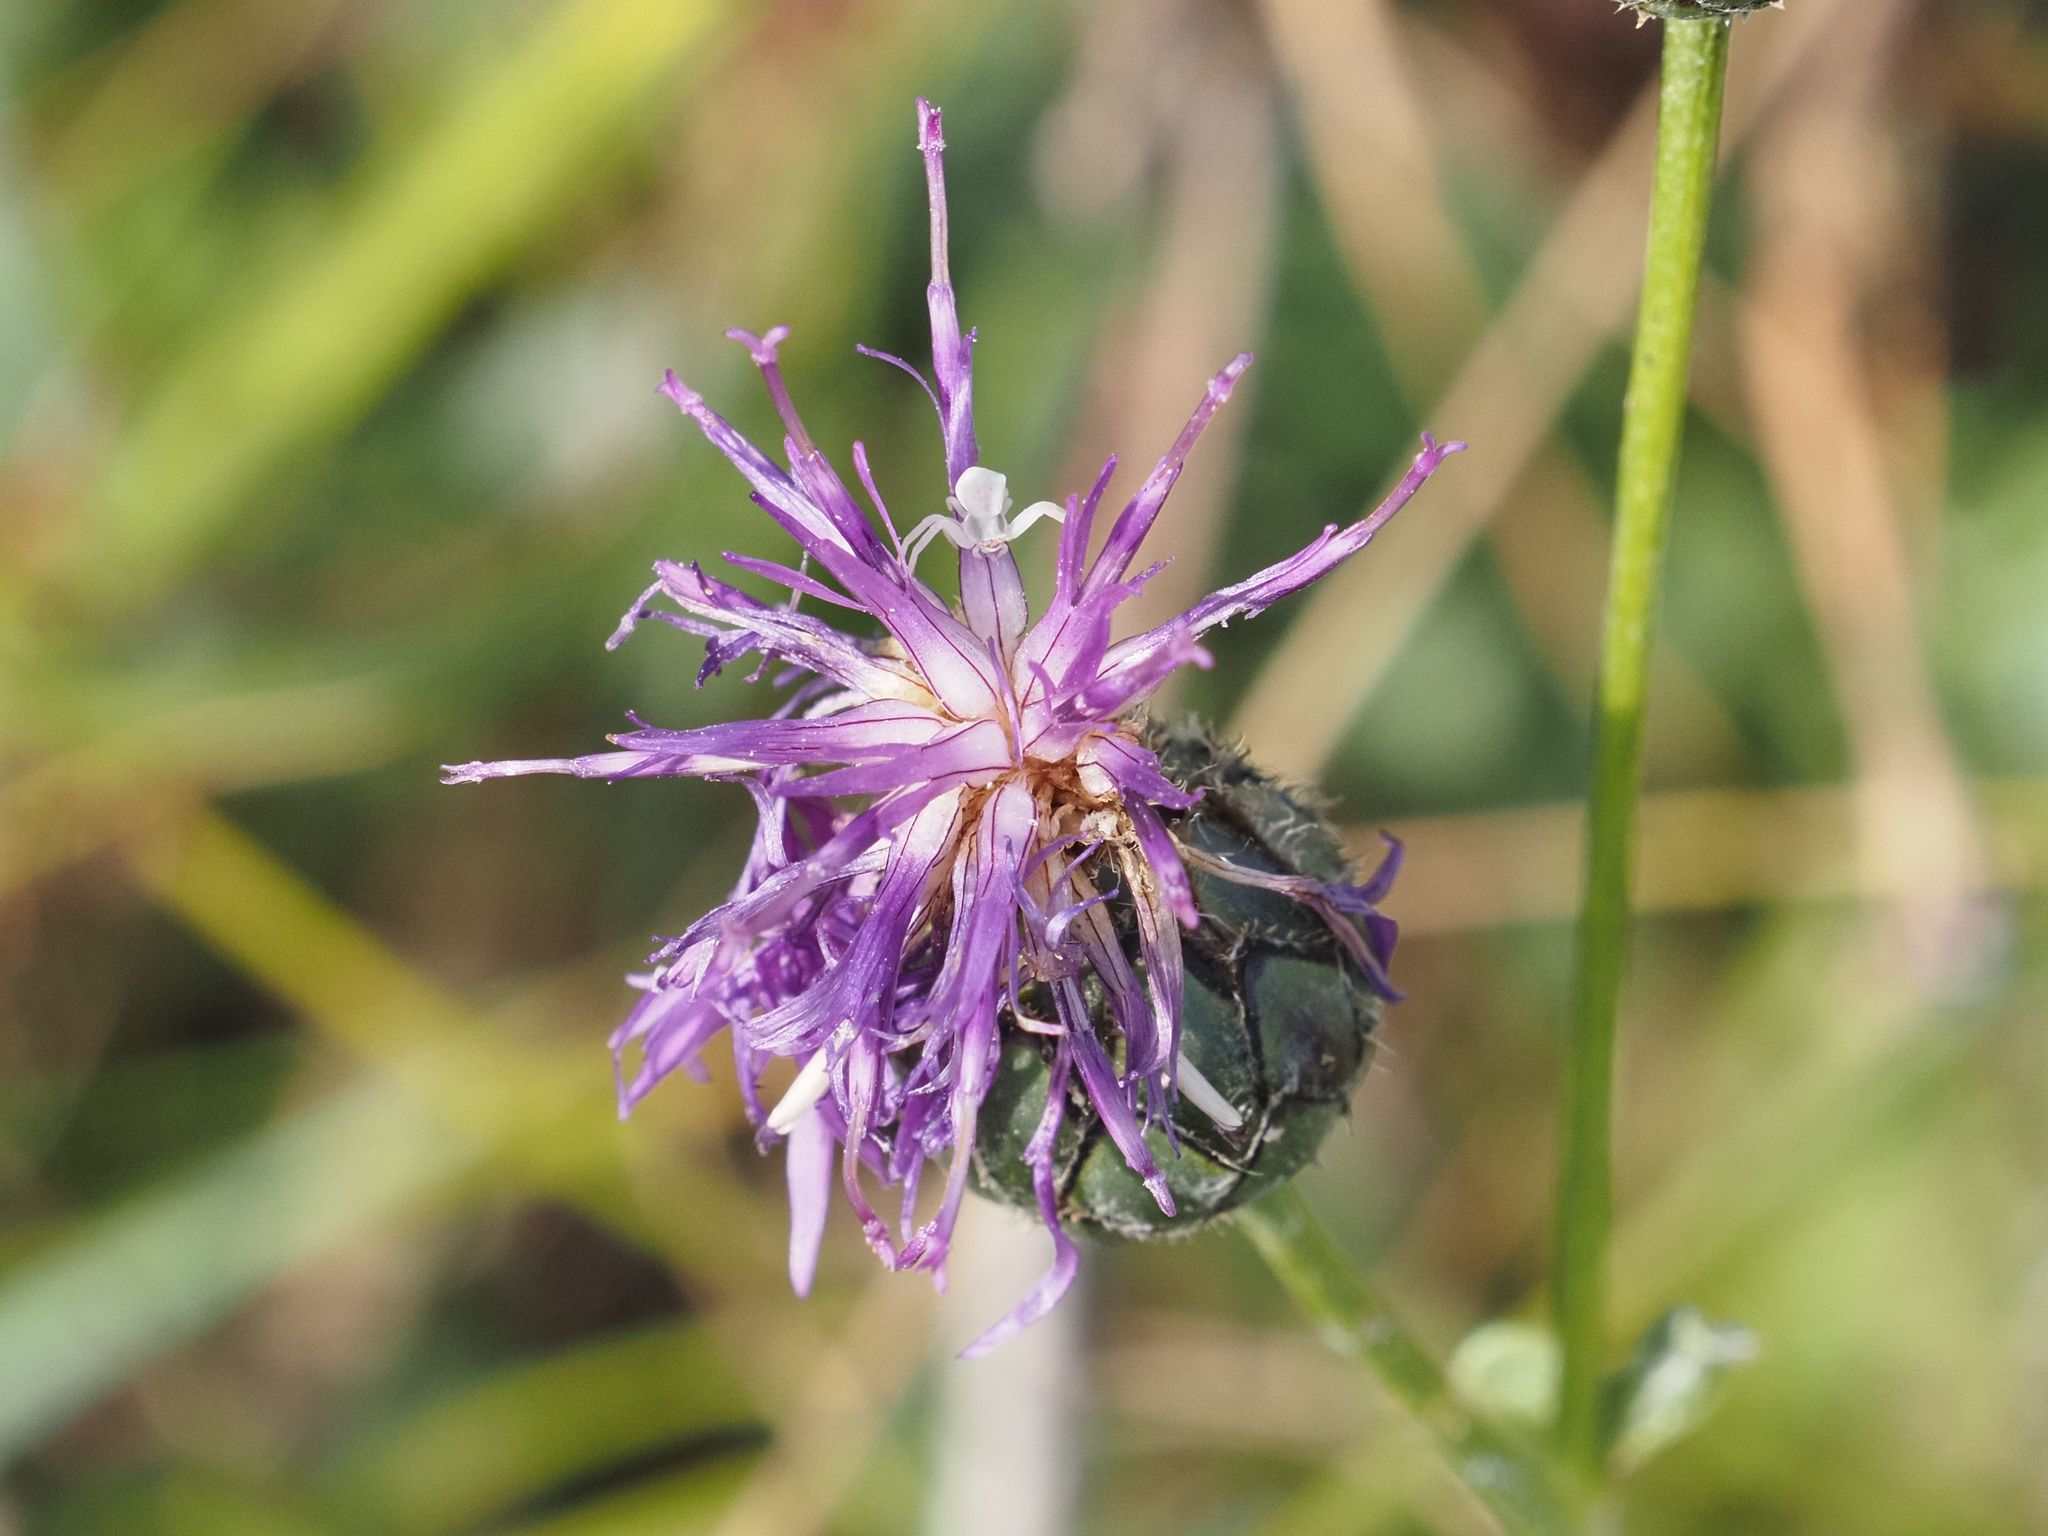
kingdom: Plantae
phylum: Tracheophyta
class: Magnoliopsida
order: Asterales
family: Asteraceae
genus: Centaurea
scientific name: Centaurea scabiosa
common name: Greater knapweed
